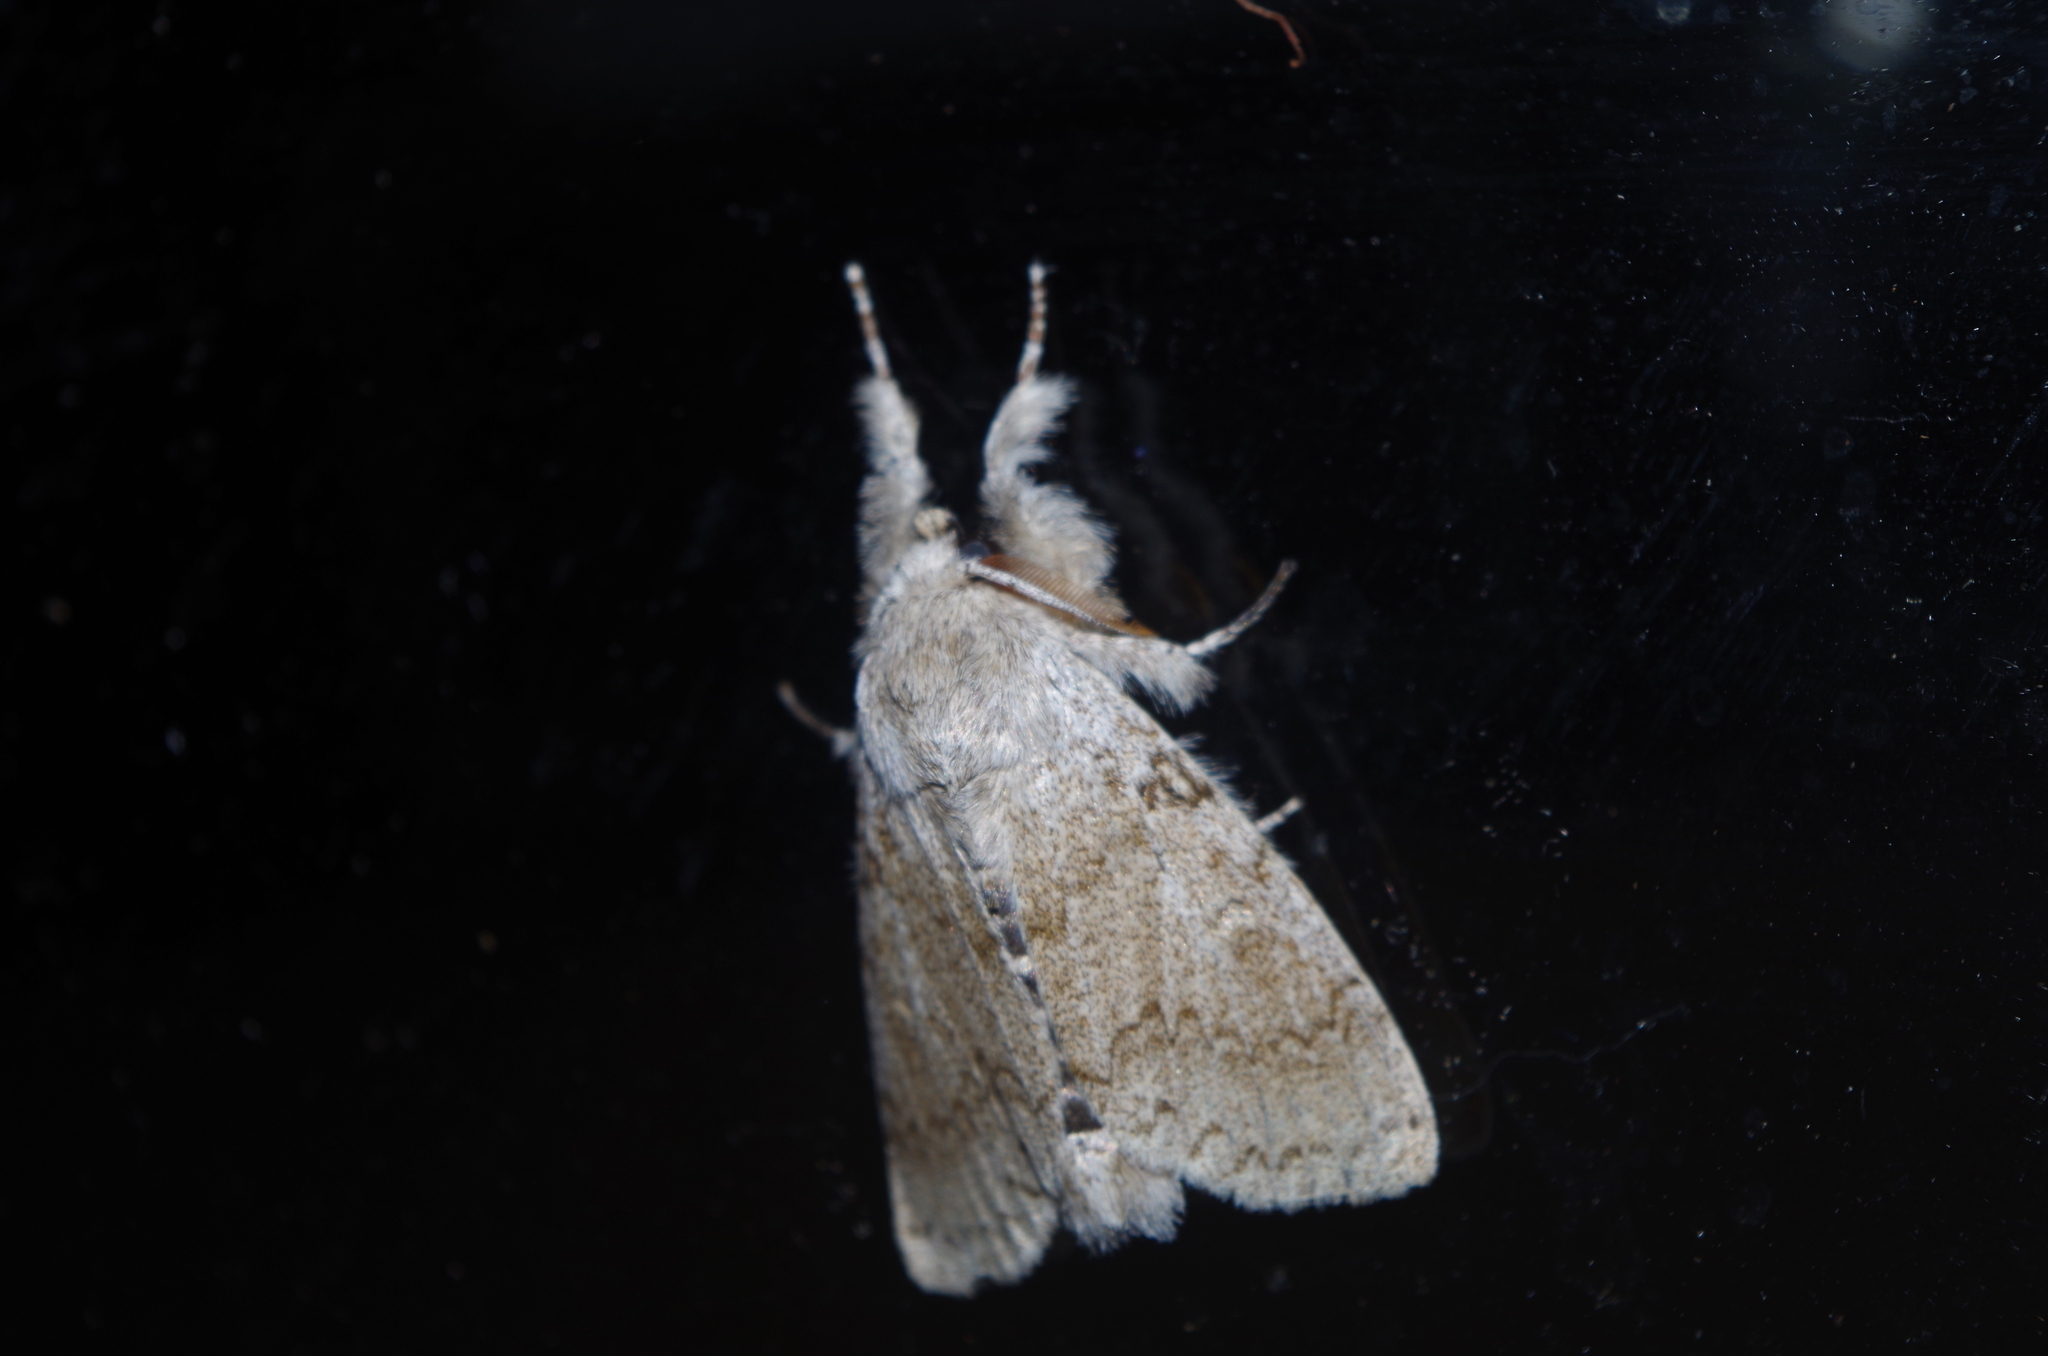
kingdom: Animalia
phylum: Arthropoda
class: Insecta
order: Lepidoptera
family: Erebidae
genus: Calliteara
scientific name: Calliteara lunulata
